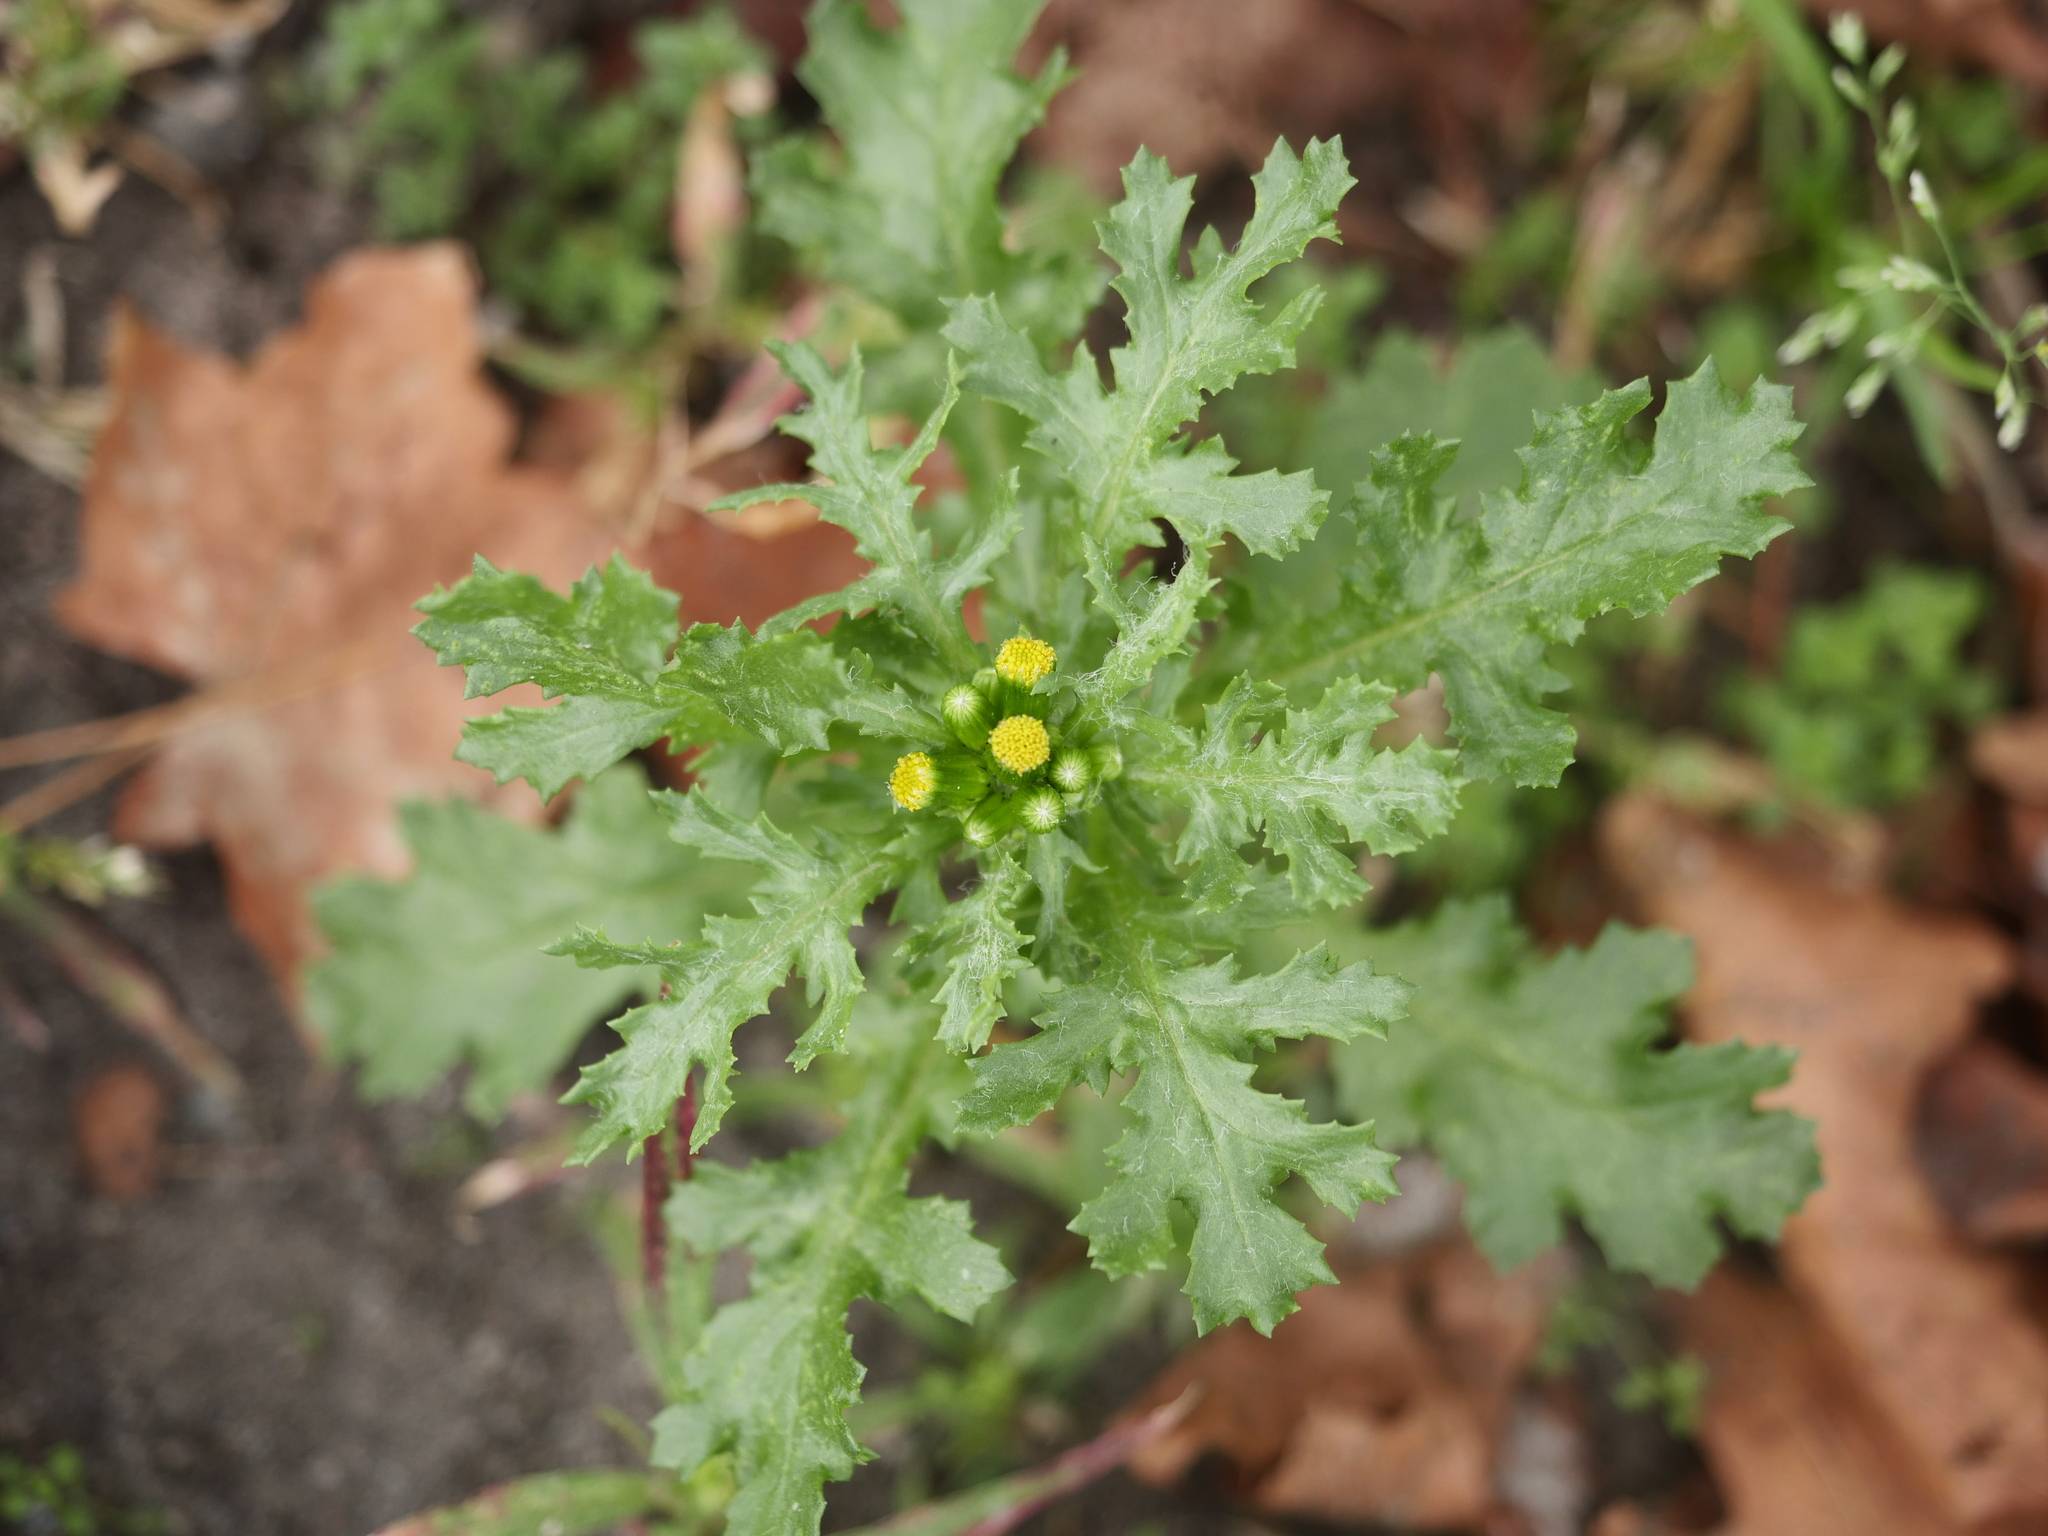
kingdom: Plantae
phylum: Tracheophyta
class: Magnoliopsida
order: Asterales
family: Asteraceae
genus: Senecio
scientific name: Senecio vulgaris
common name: Old-man-in-the-spring
